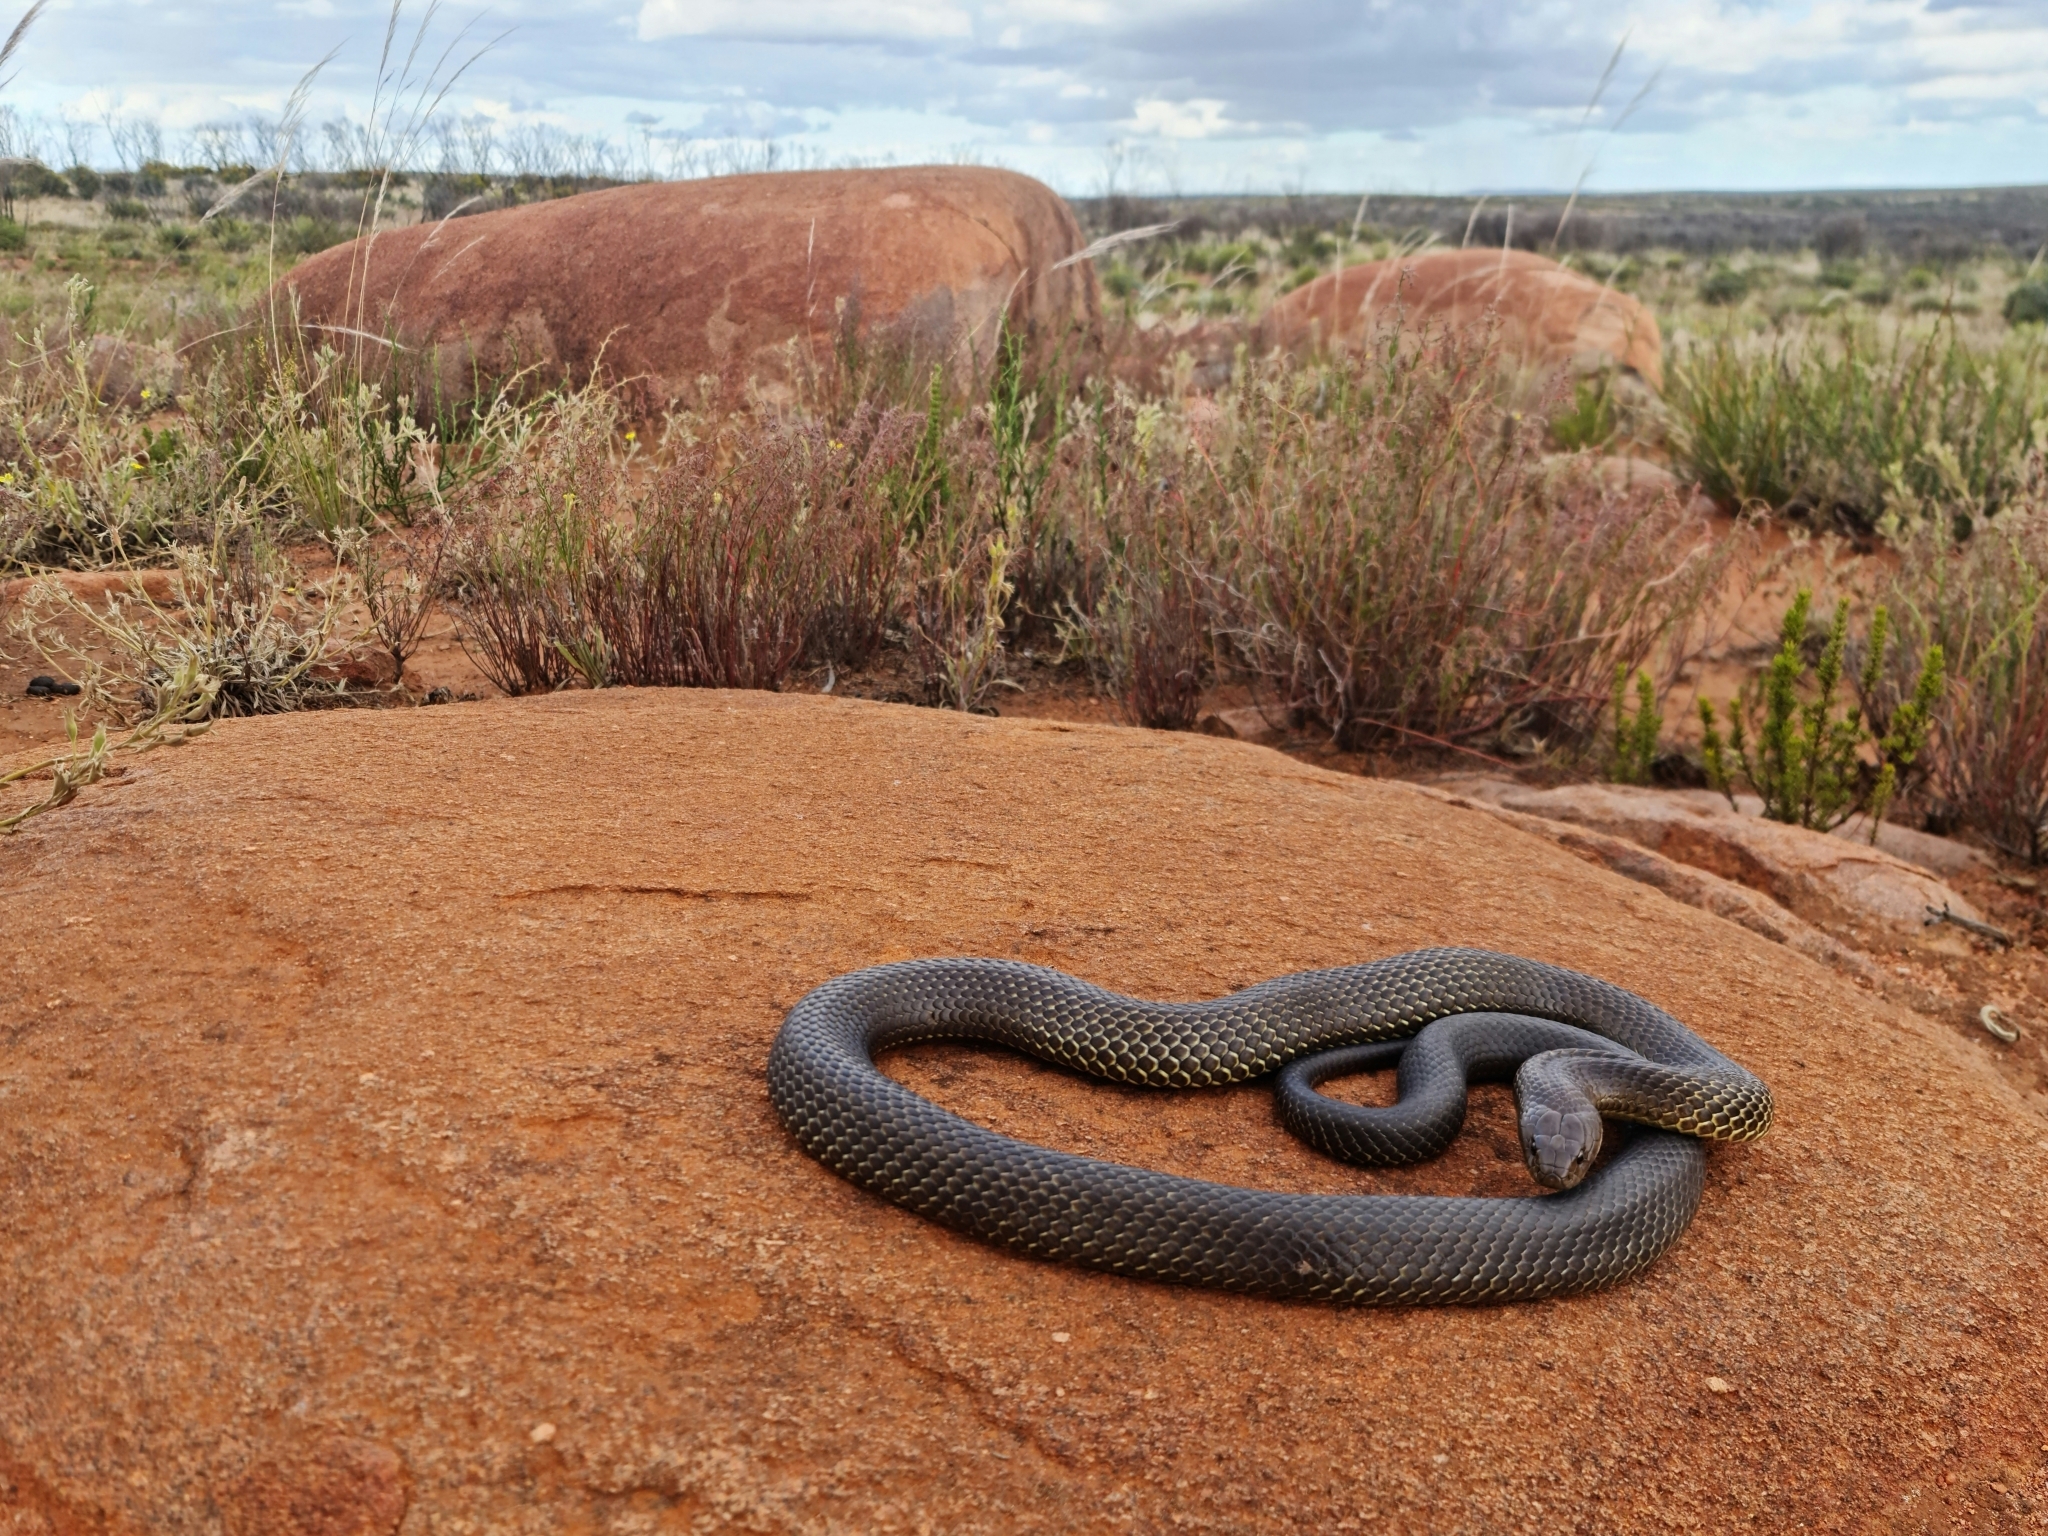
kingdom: Animalia
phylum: Chordata
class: Squamata
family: Elapidae
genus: Pseudechis
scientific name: Pseudechis australis
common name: King brown snake
